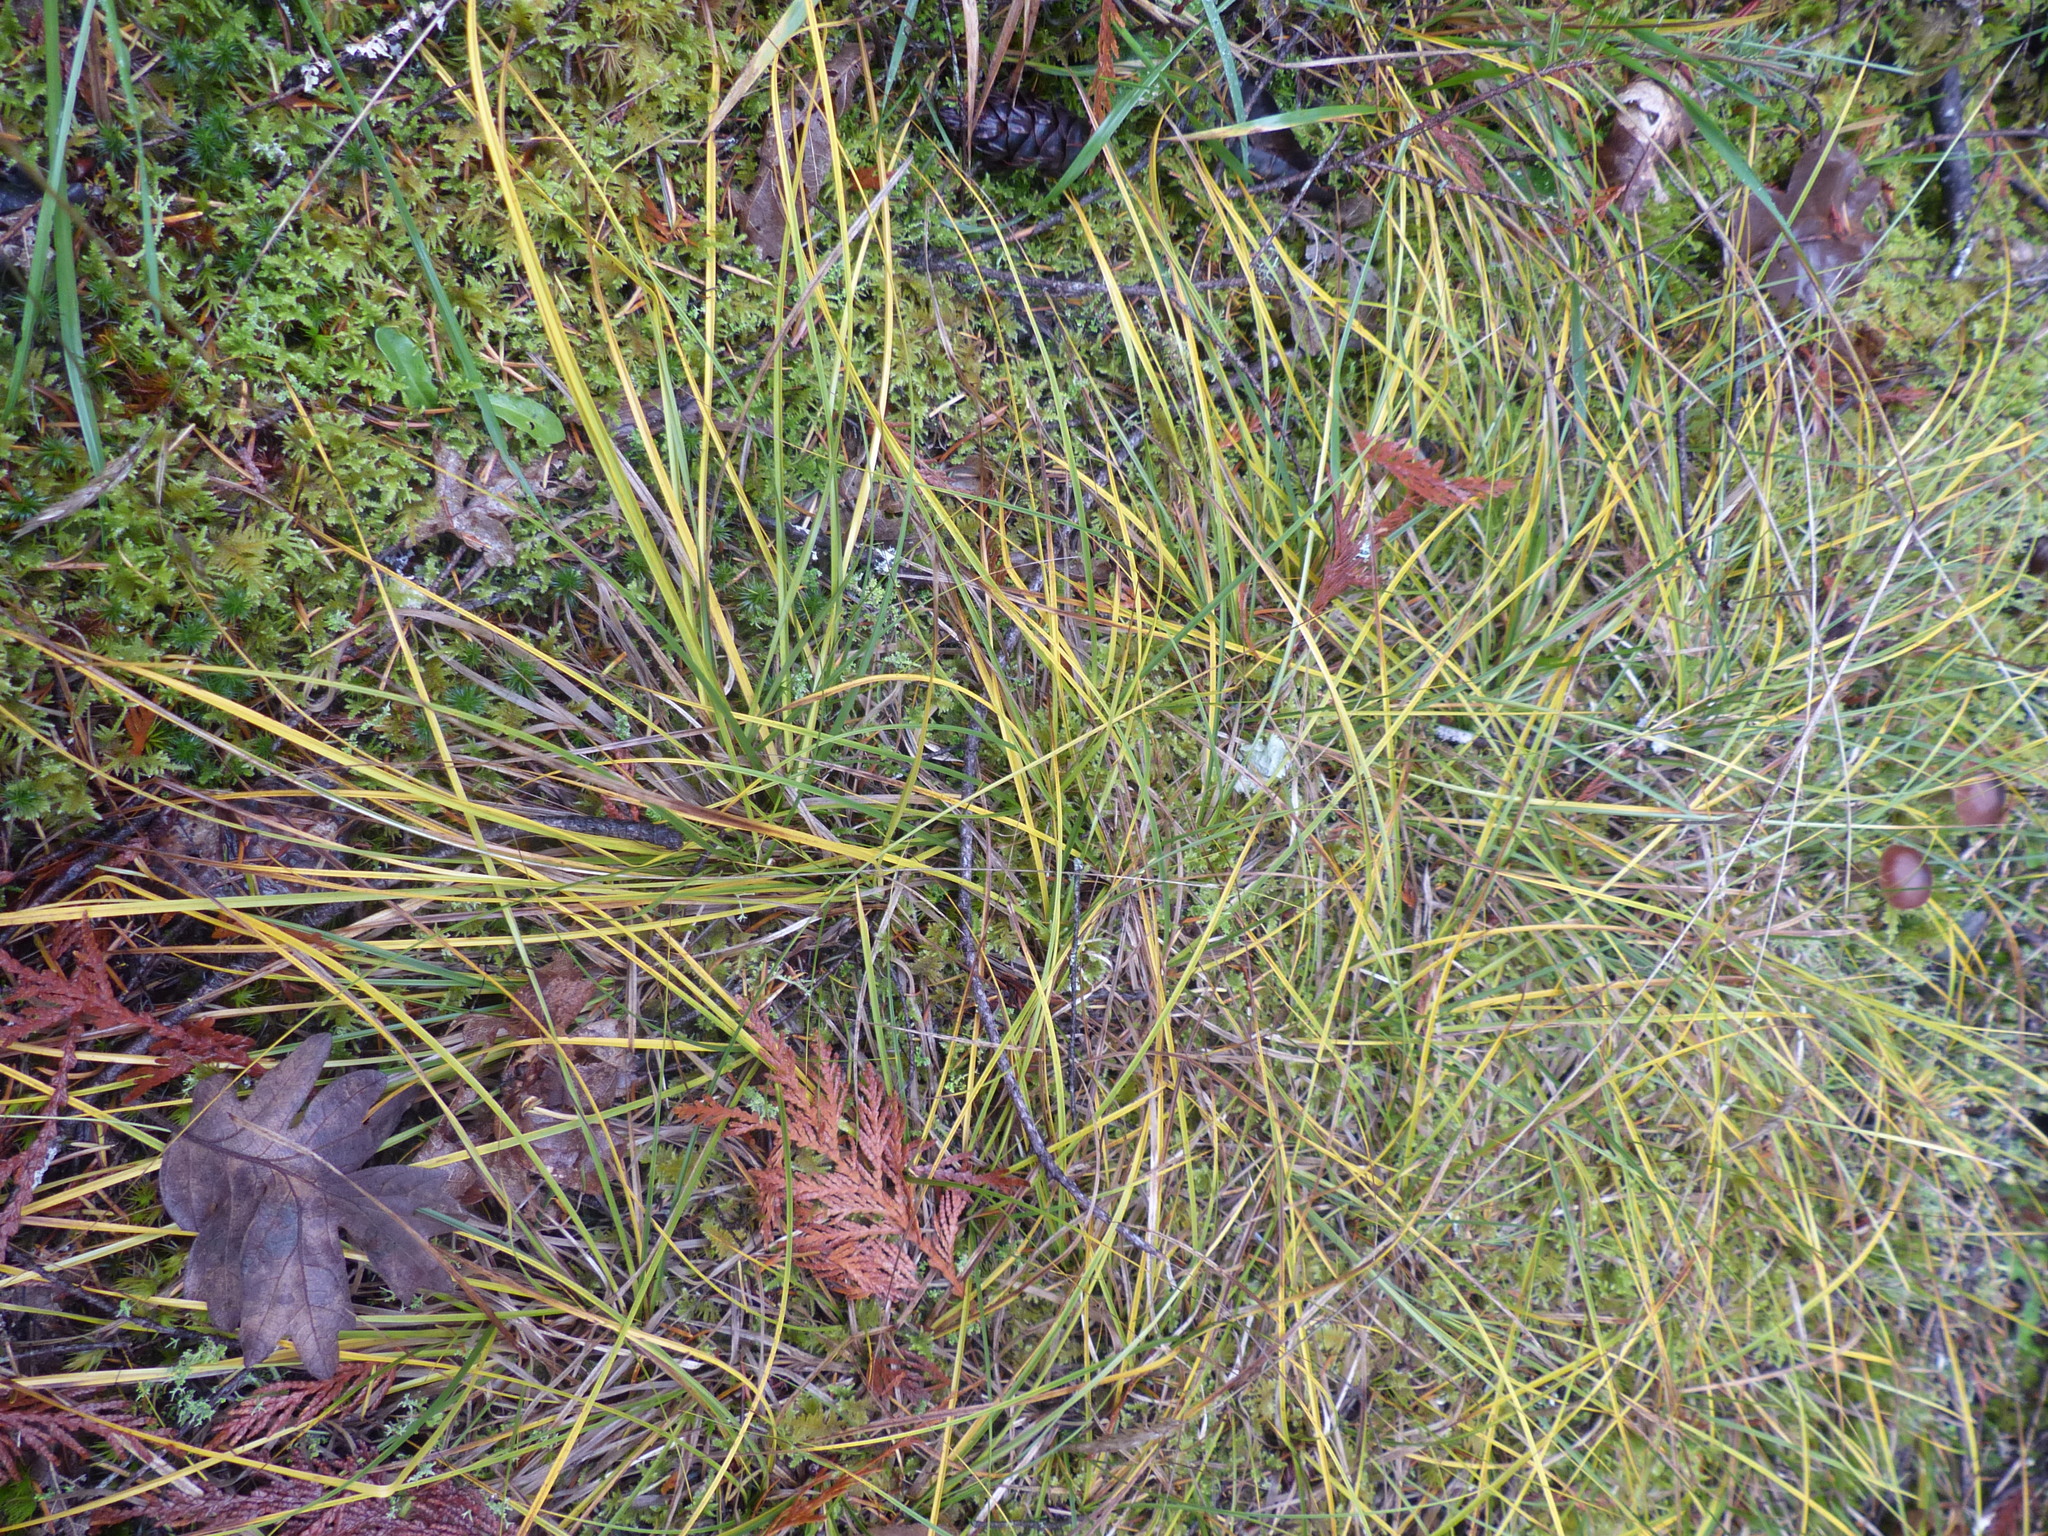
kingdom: Plantae
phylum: Tracheophyta
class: Liliopsida
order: Poales
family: Cyperaceae
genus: Carex
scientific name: Carex inops
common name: Long-stolon sedge
